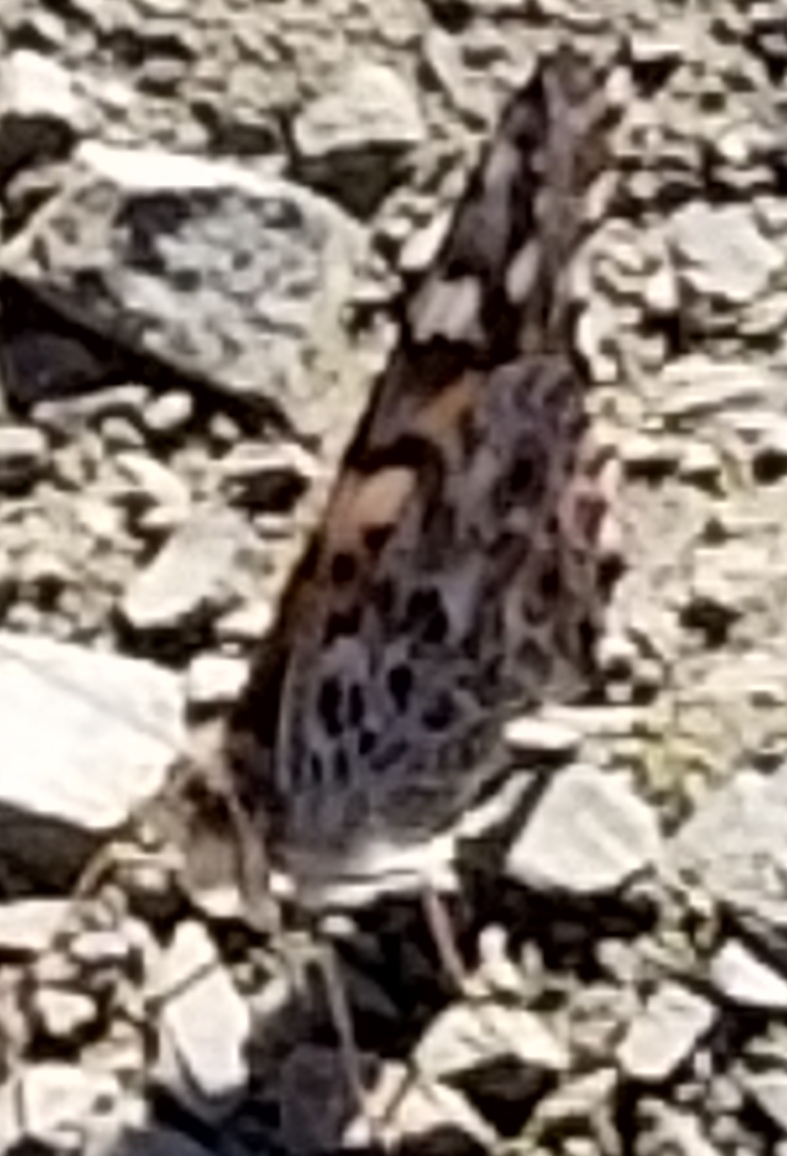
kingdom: Animalia
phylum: Arthropoda
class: Insecta
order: Lepidoptera
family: Nymphalidae
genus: Vanessa
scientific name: Vanessa cardui
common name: Painted lady
